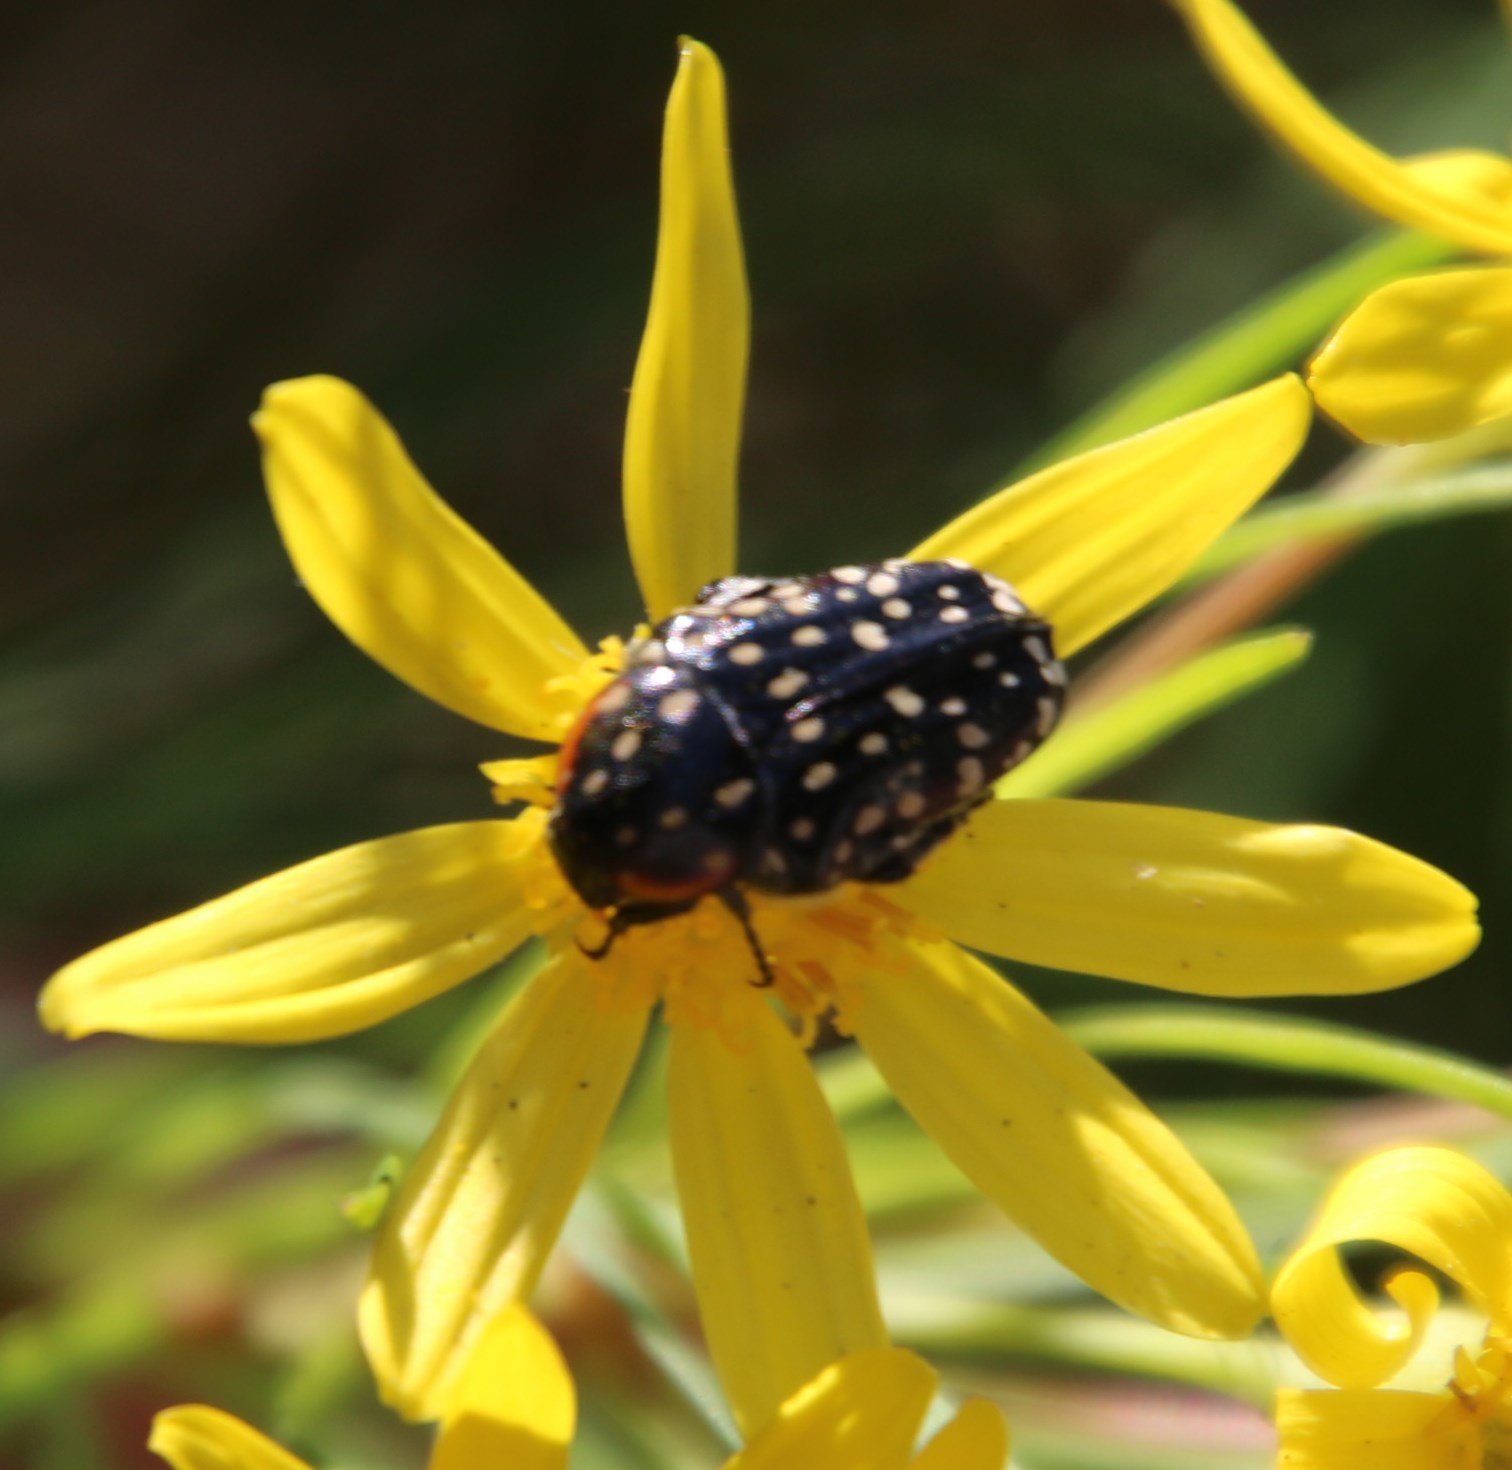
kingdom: Animalia
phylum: Arthropoda
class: Insecta
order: Coleoptera
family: Scarabaeidae
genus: Oxythyrea
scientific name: Oxythyrea
